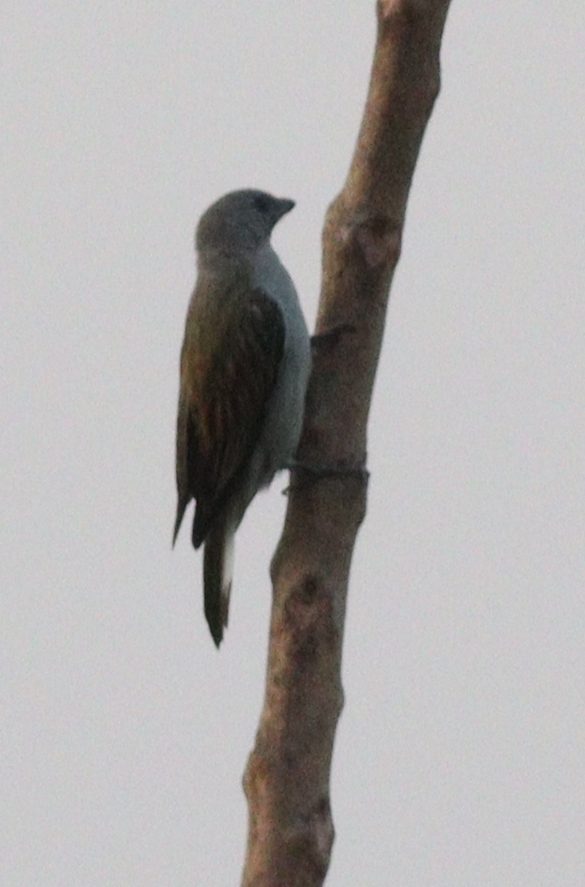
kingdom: Animalia
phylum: Chordata
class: Aves
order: Piciformes
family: Indicatoridae
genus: Indicator
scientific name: Indicator minor
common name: Lesser honeyguide
